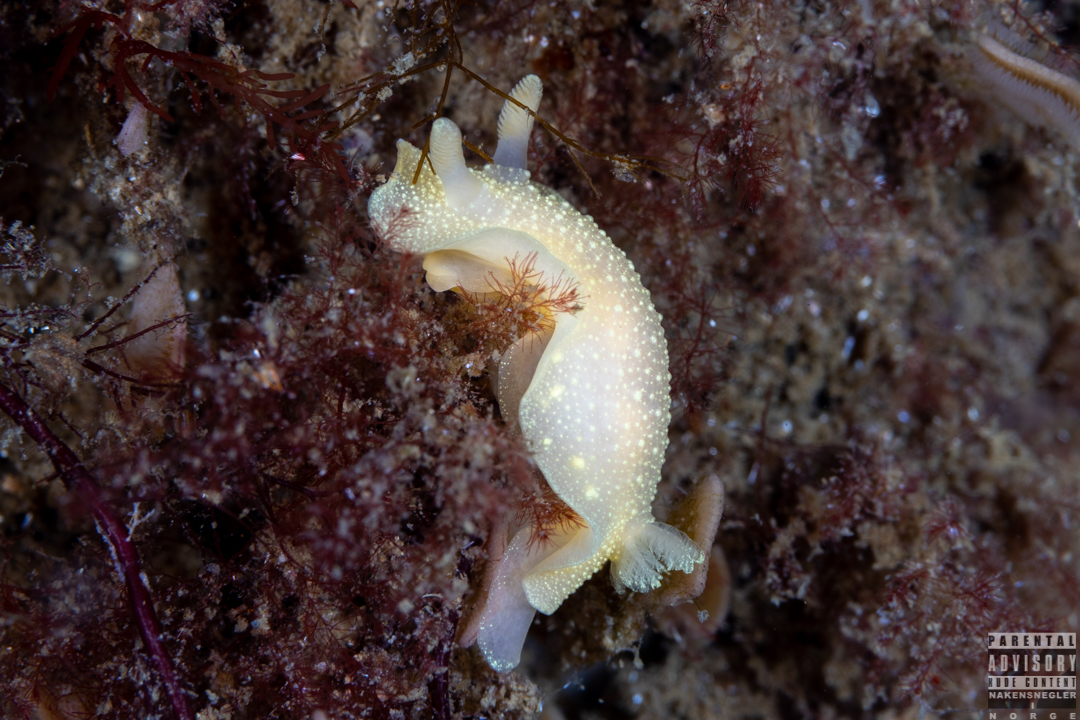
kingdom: Animalia
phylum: Mollusca
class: Gastropoda
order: Nudibranchia
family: Cadlinidae
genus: Cadlina
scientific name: Cadlina laevis
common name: White atlantic cadlina
